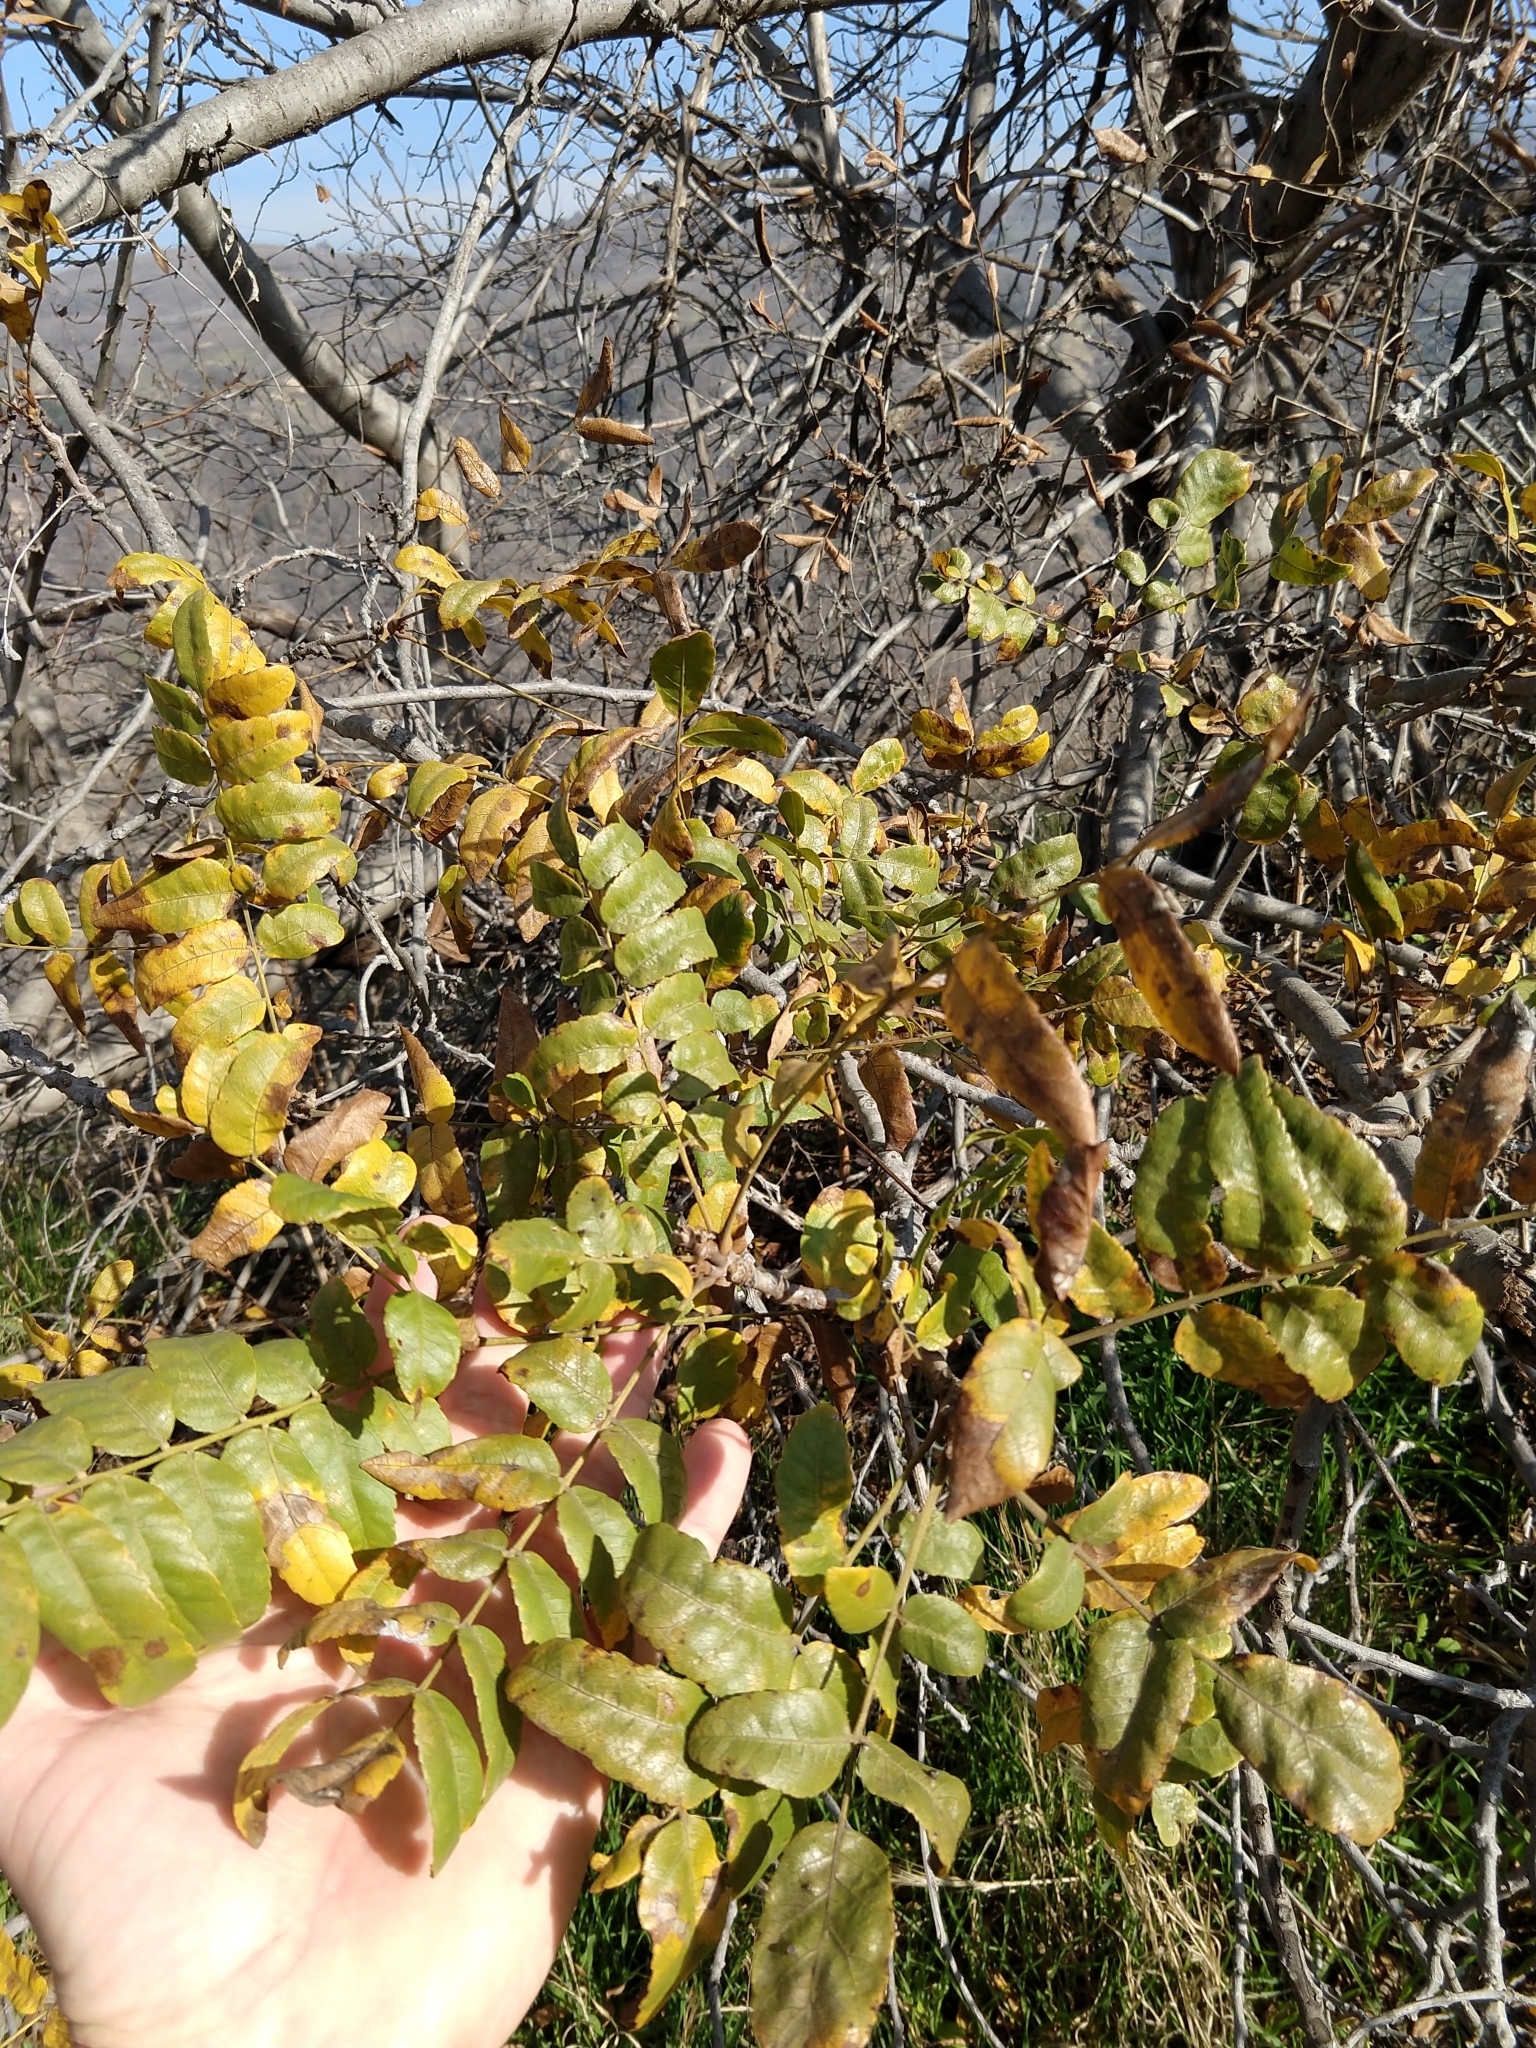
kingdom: Plantae
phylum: Tracheophyta
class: Magnoliopsida
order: Fagales
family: Juglandaceae
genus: Juglans
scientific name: Juglans californica
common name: Southern california black walnut
